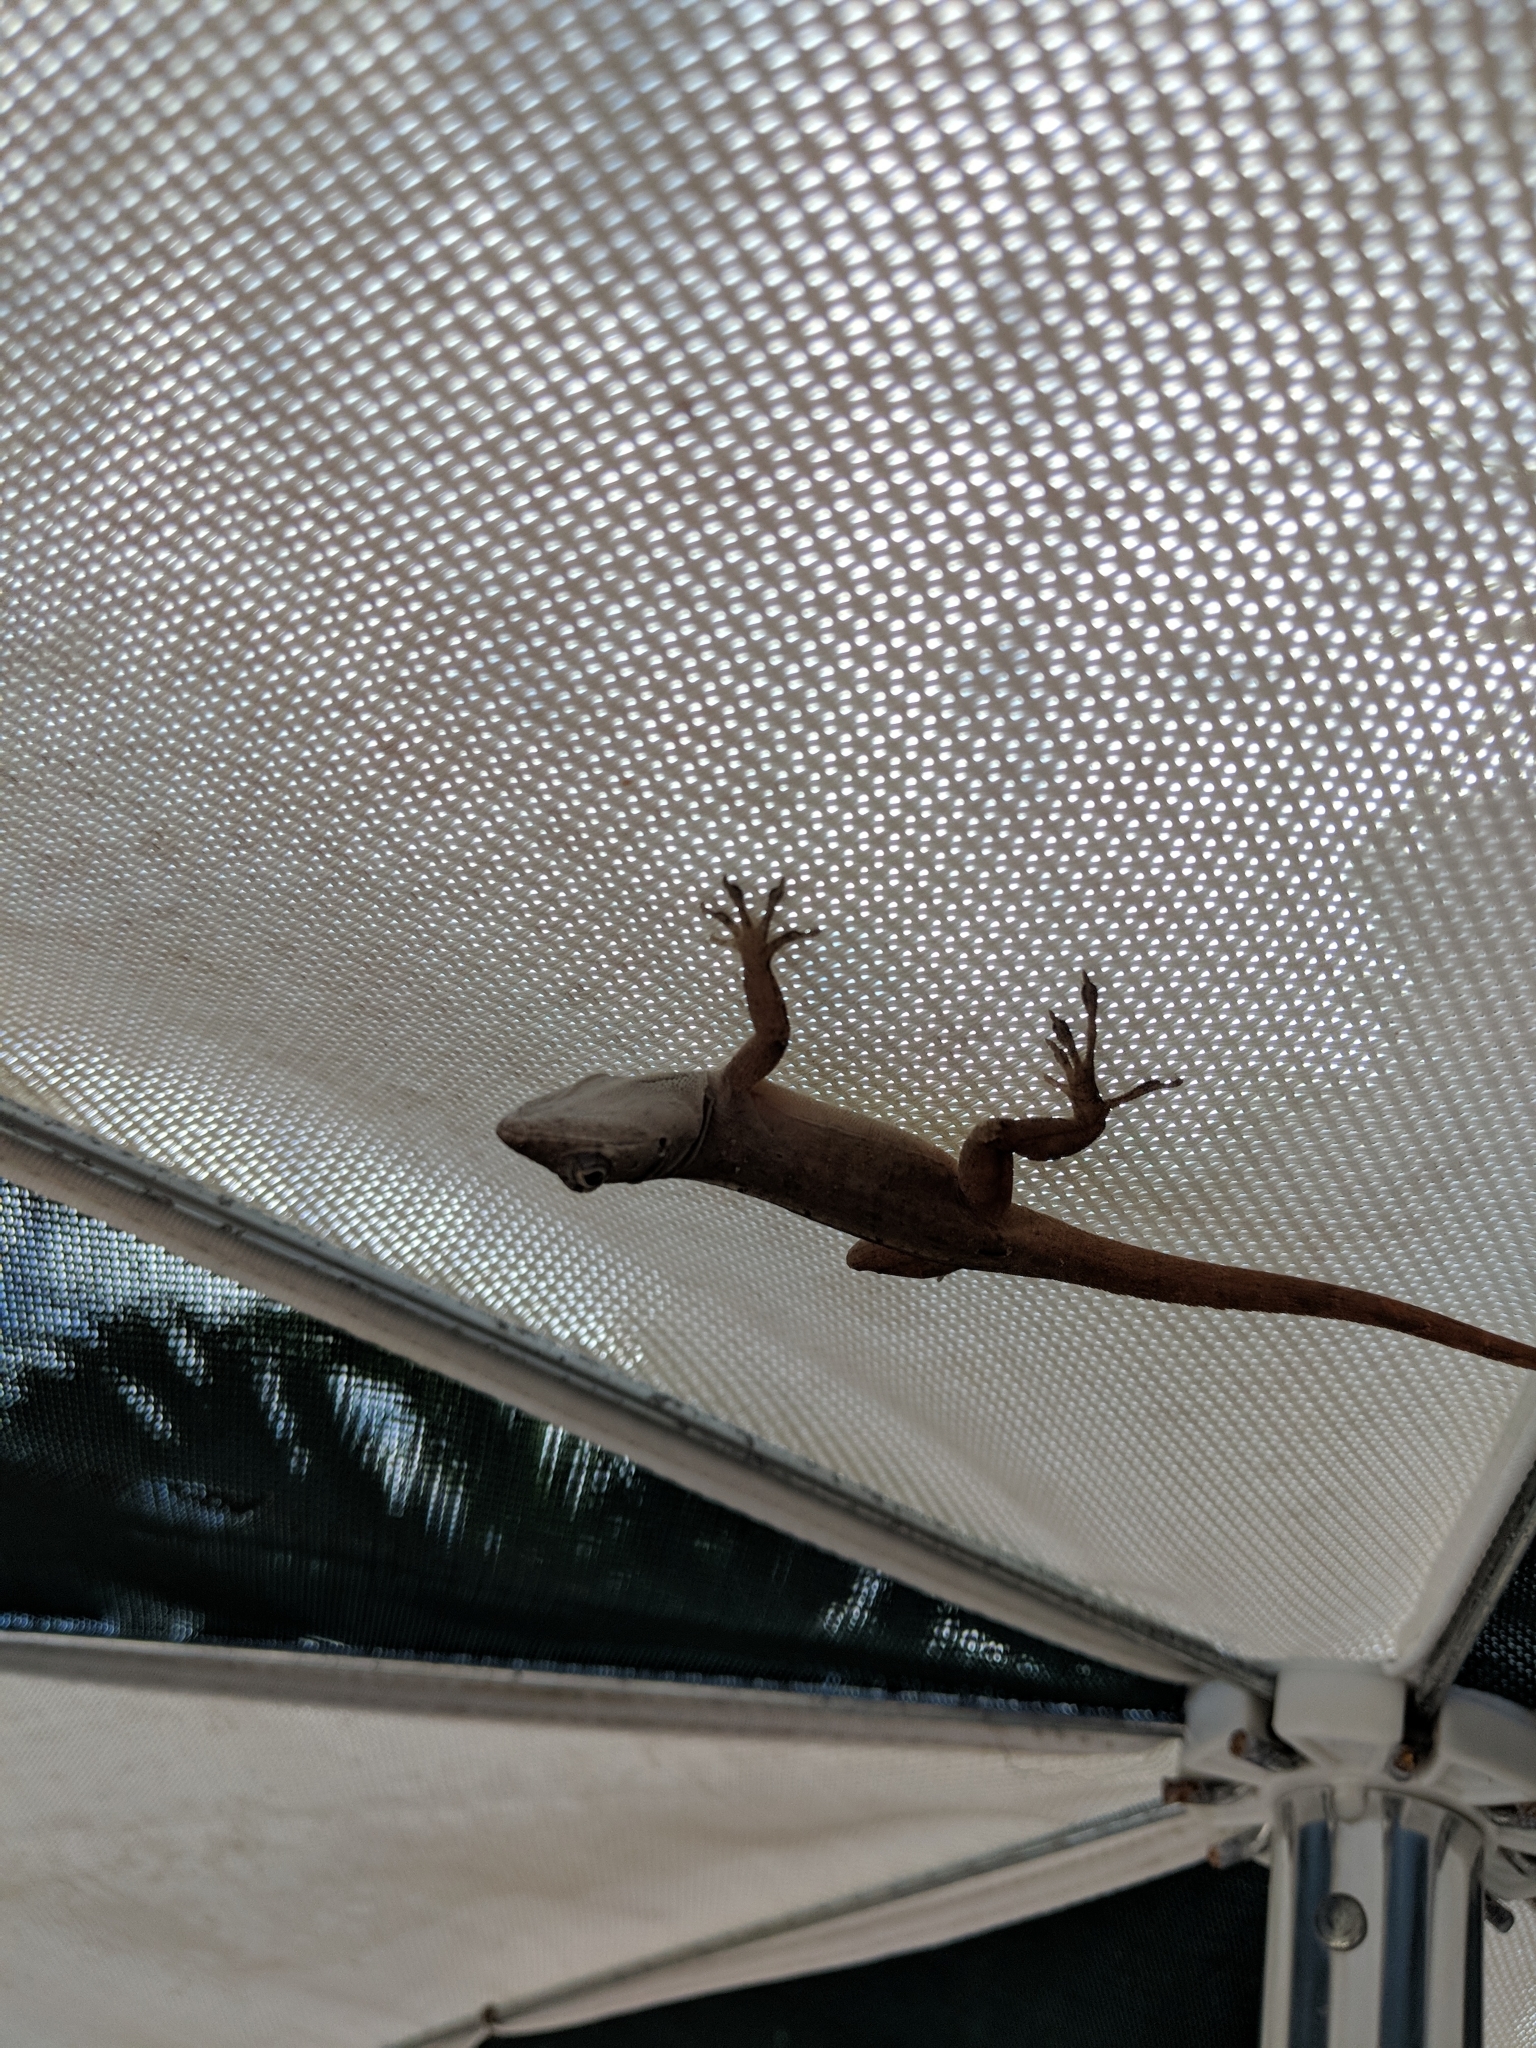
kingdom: Animalia
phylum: Chordata
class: Squamata
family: Dactyloidae
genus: Anolis
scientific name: Anolis sagrei
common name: Brown anole
